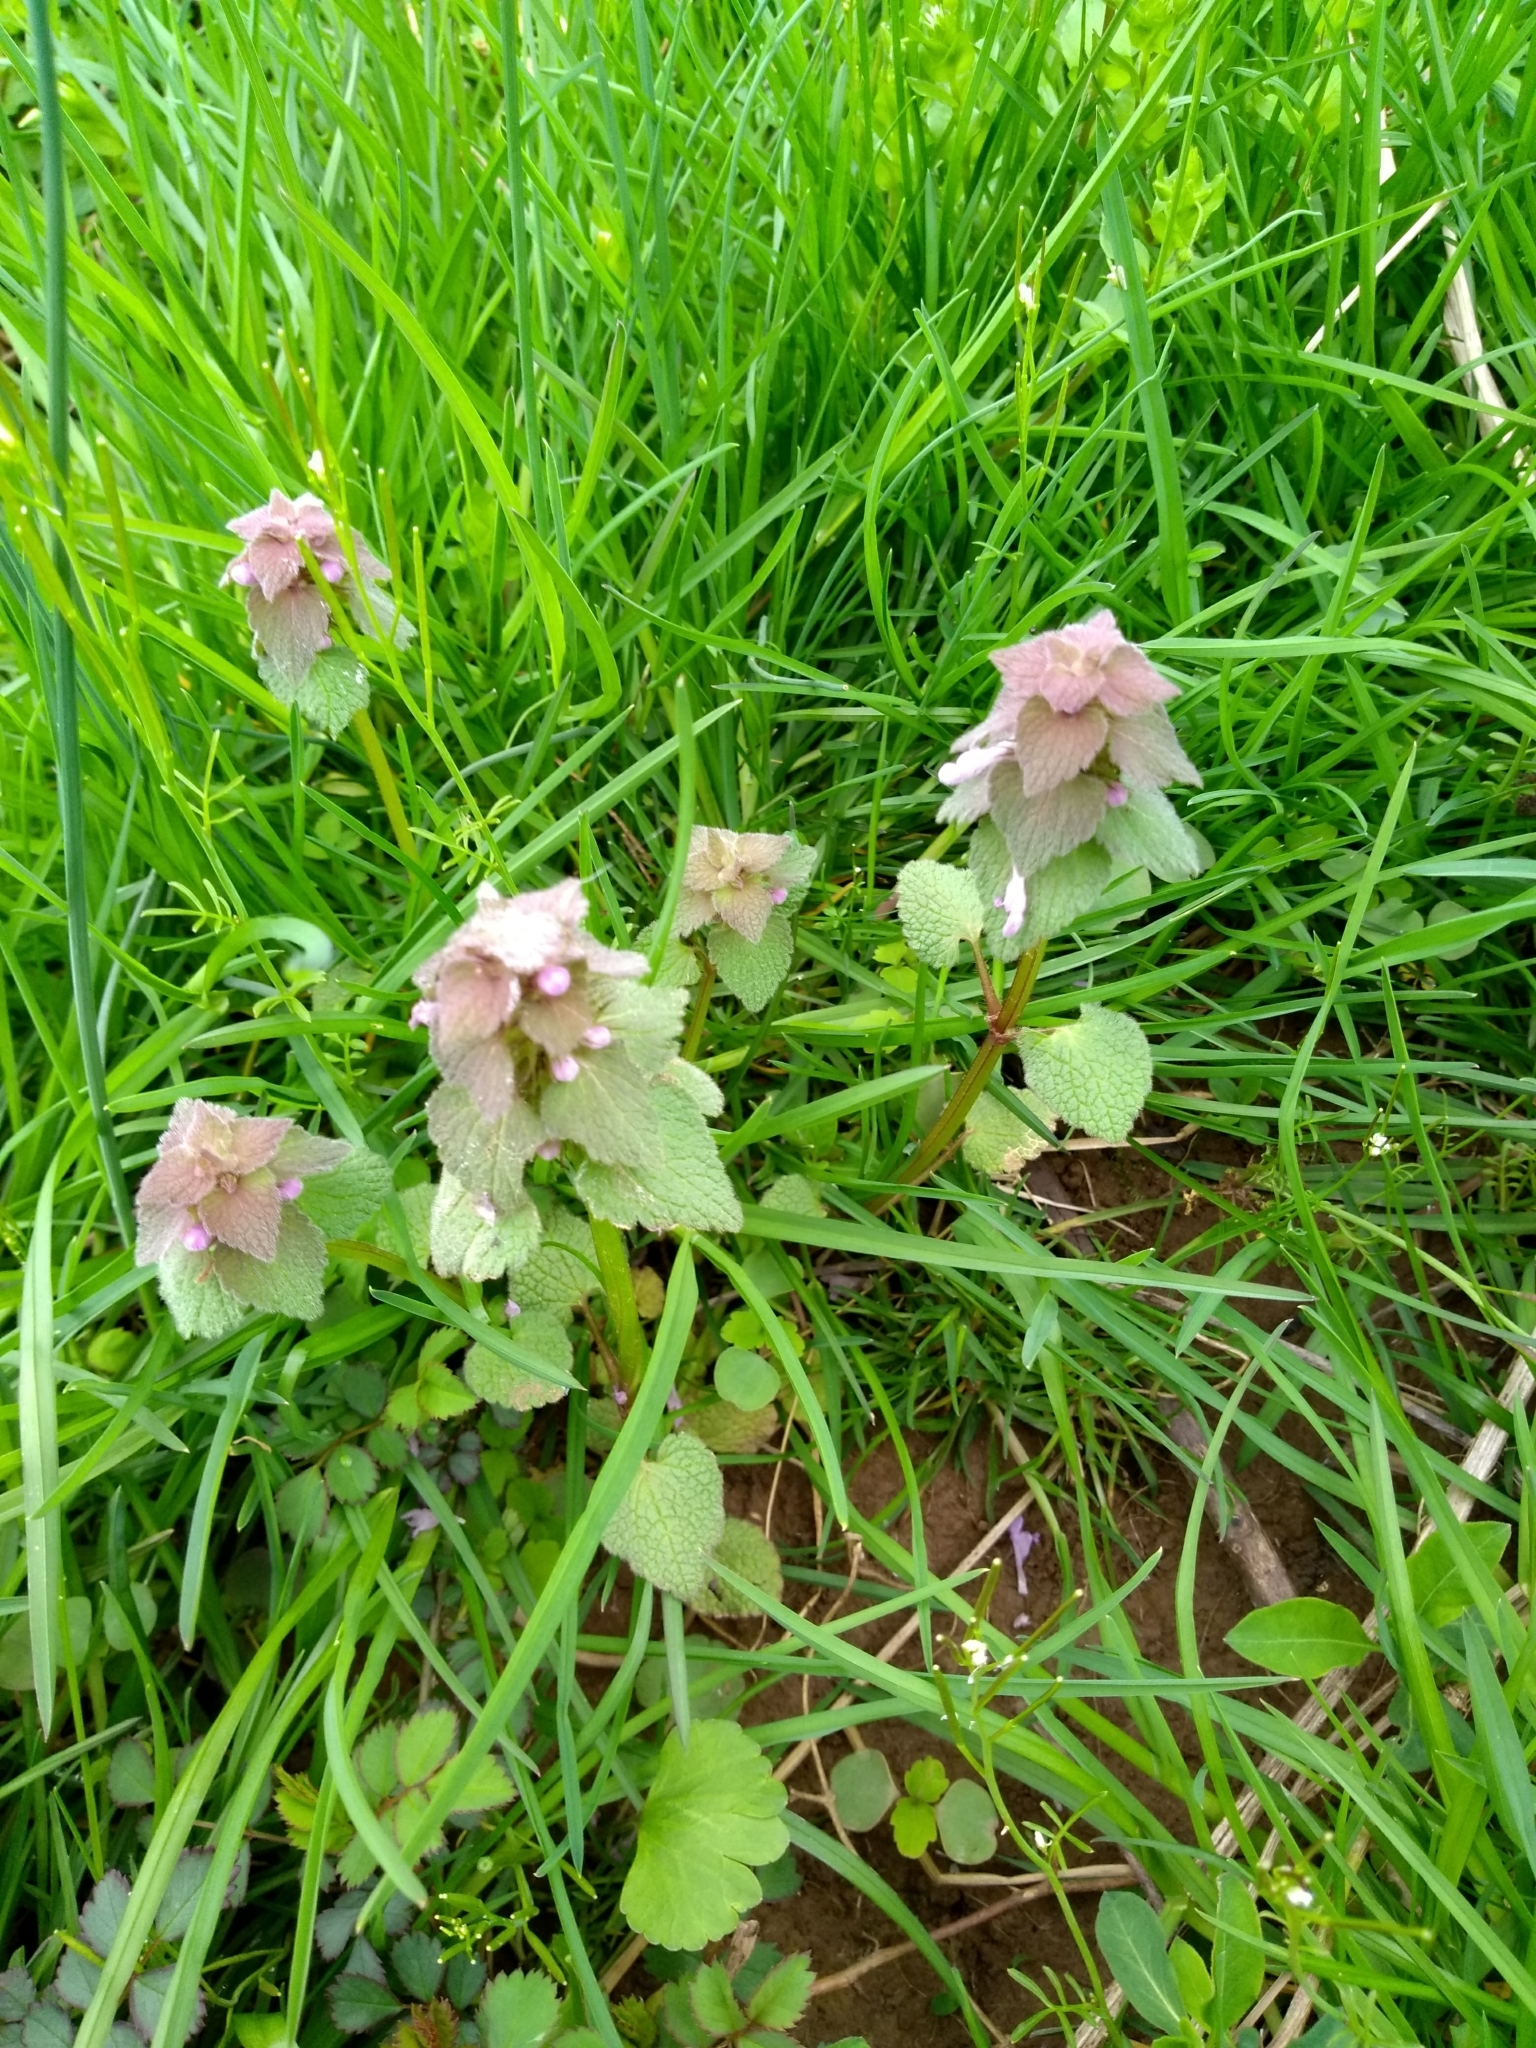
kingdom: Plantae
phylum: Tracheophyta
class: Magnoliopsida
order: Lamiales
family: Lamiaceae
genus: Lamium
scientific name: Lamium purpureum
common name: Red dead-nettle
